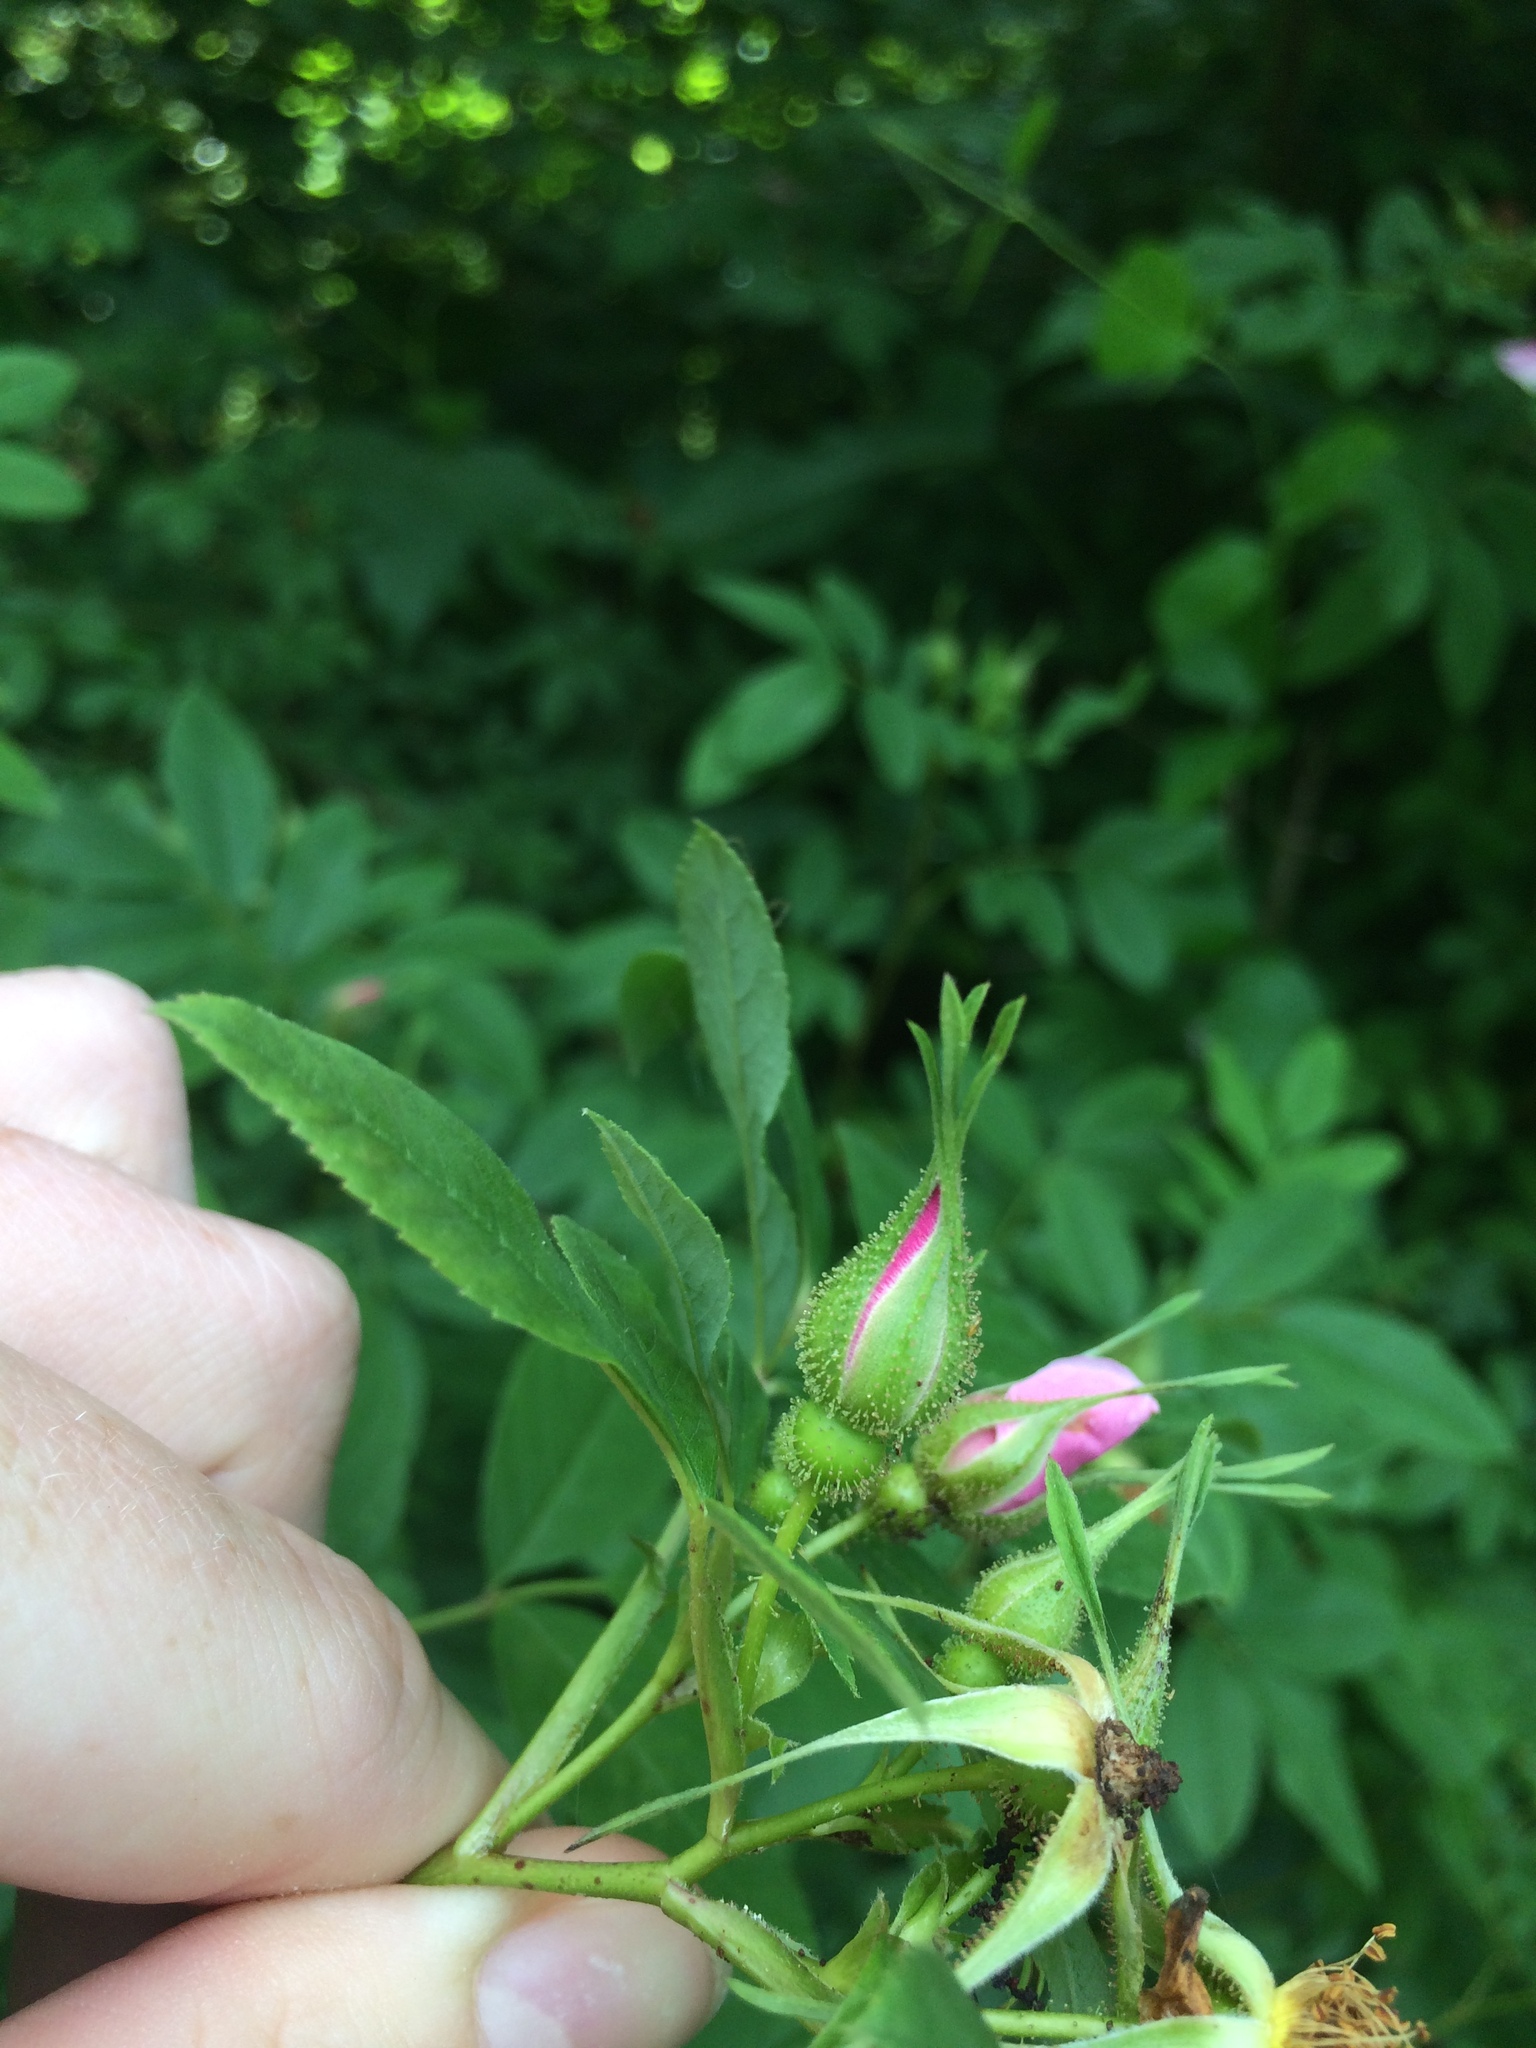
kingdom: Plantae
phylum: Tracheophyta
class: Magnoliopsida
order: Rosales
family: Rosaceae
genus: Rosa
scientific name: Rosa palustris
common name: Swamp rose
